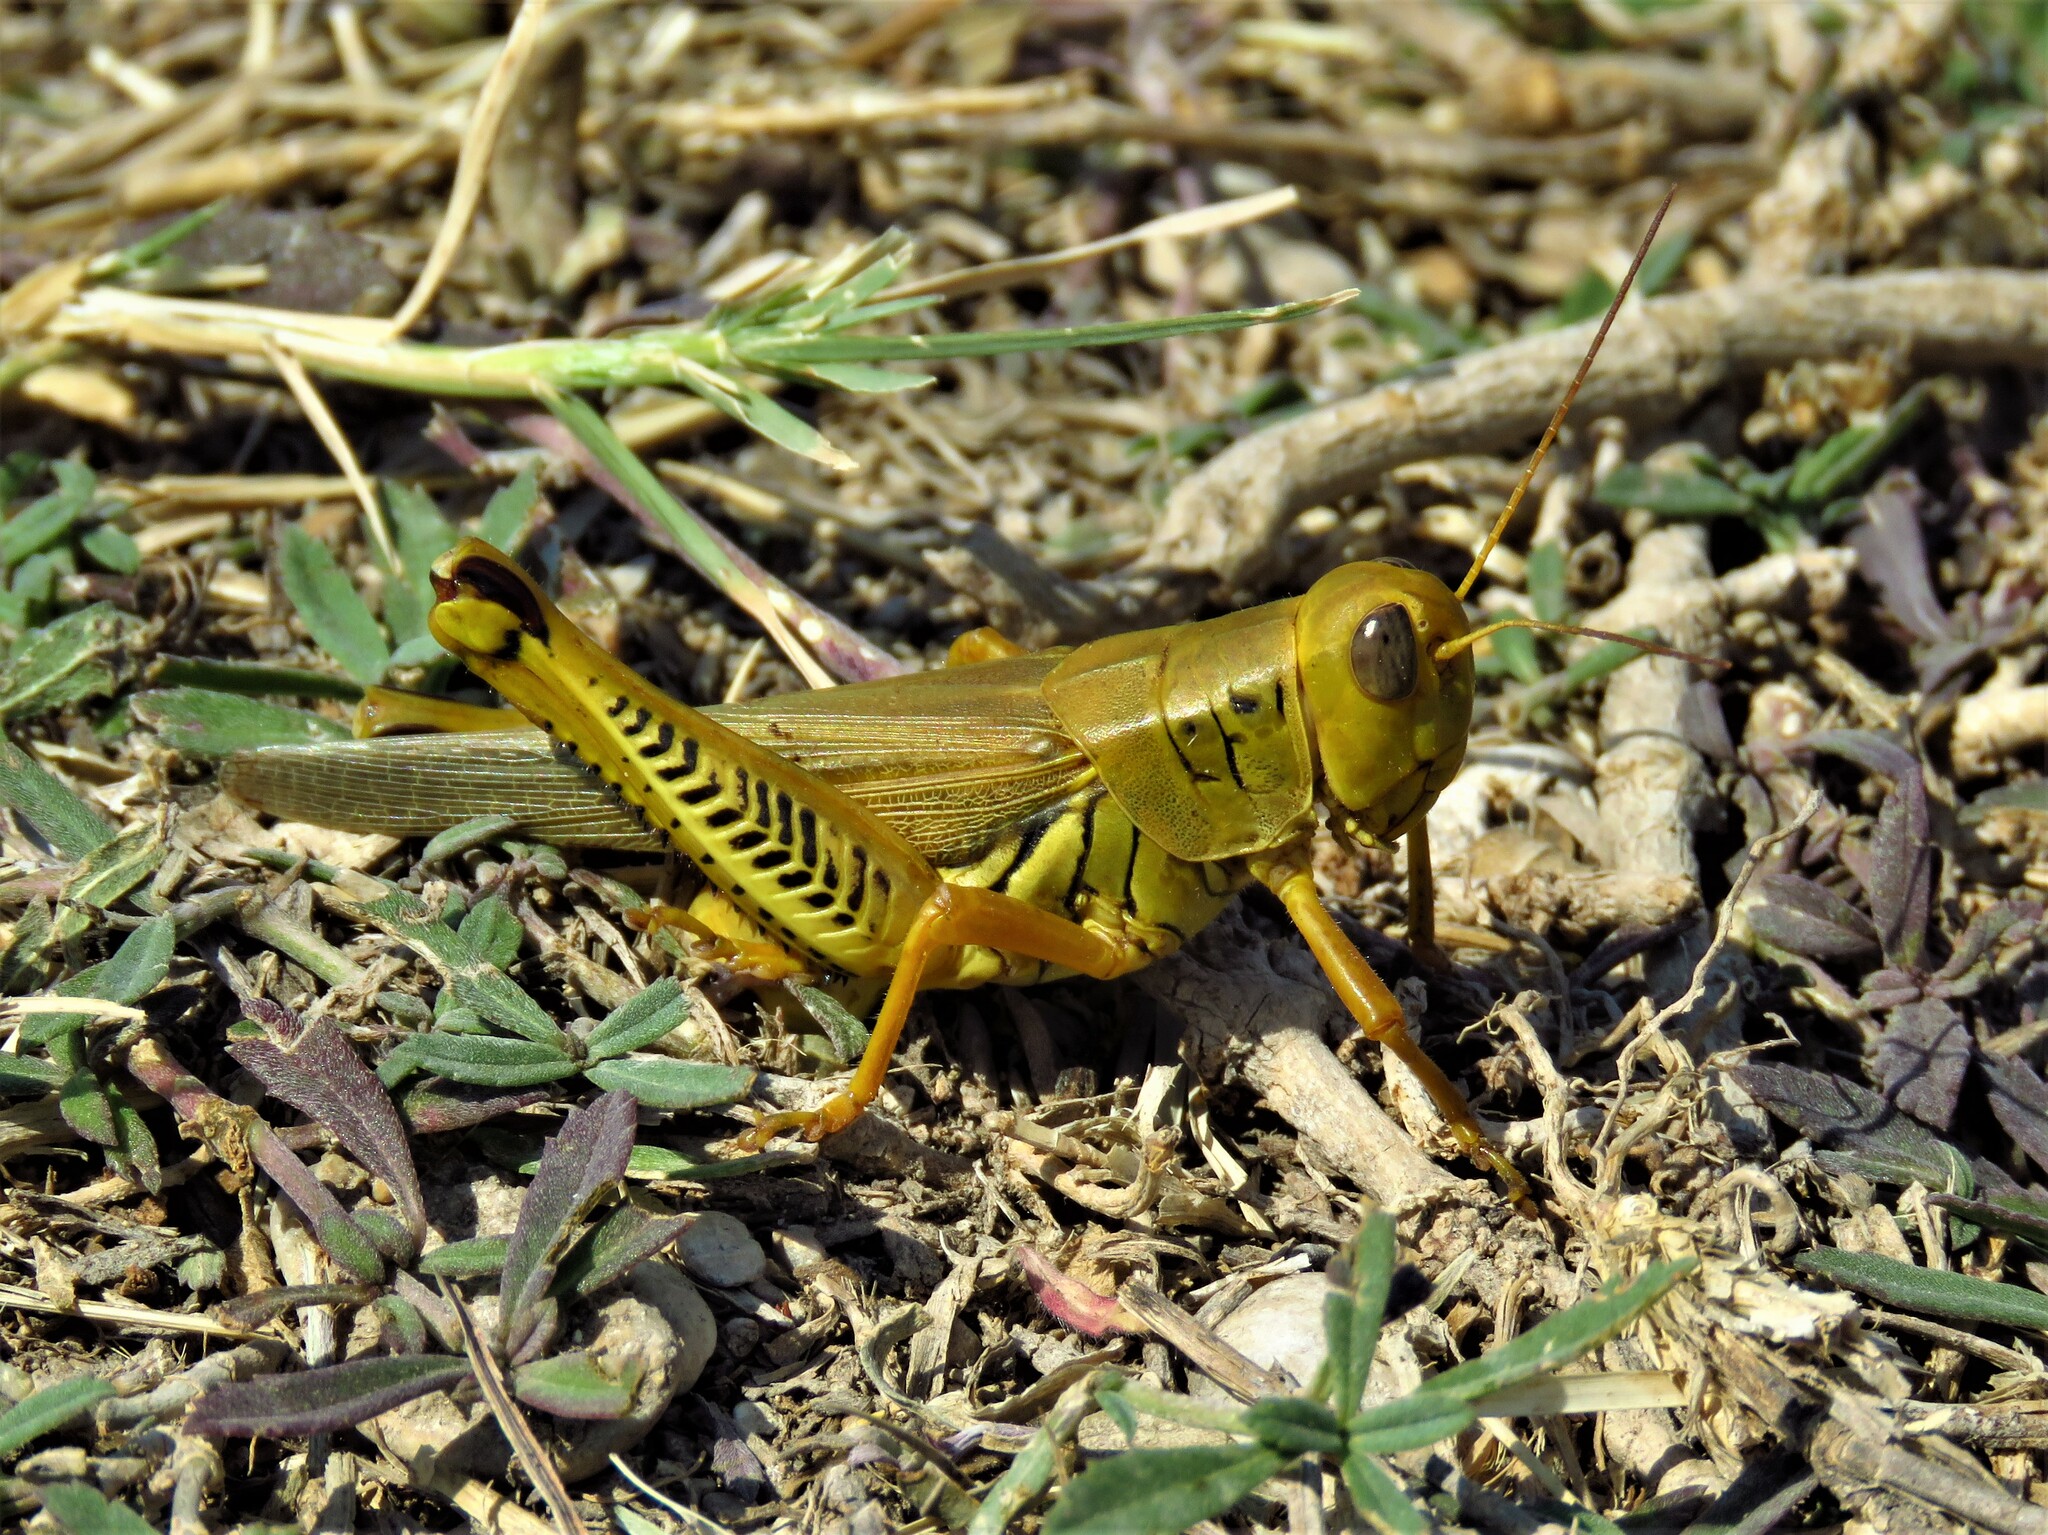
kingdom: Animalia
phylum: Arthropoda
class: Insecta
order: Orthoptera
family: Acrididae
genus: Melanoplus
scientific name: Melanoplus differentialis
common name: Differential grasshopper
